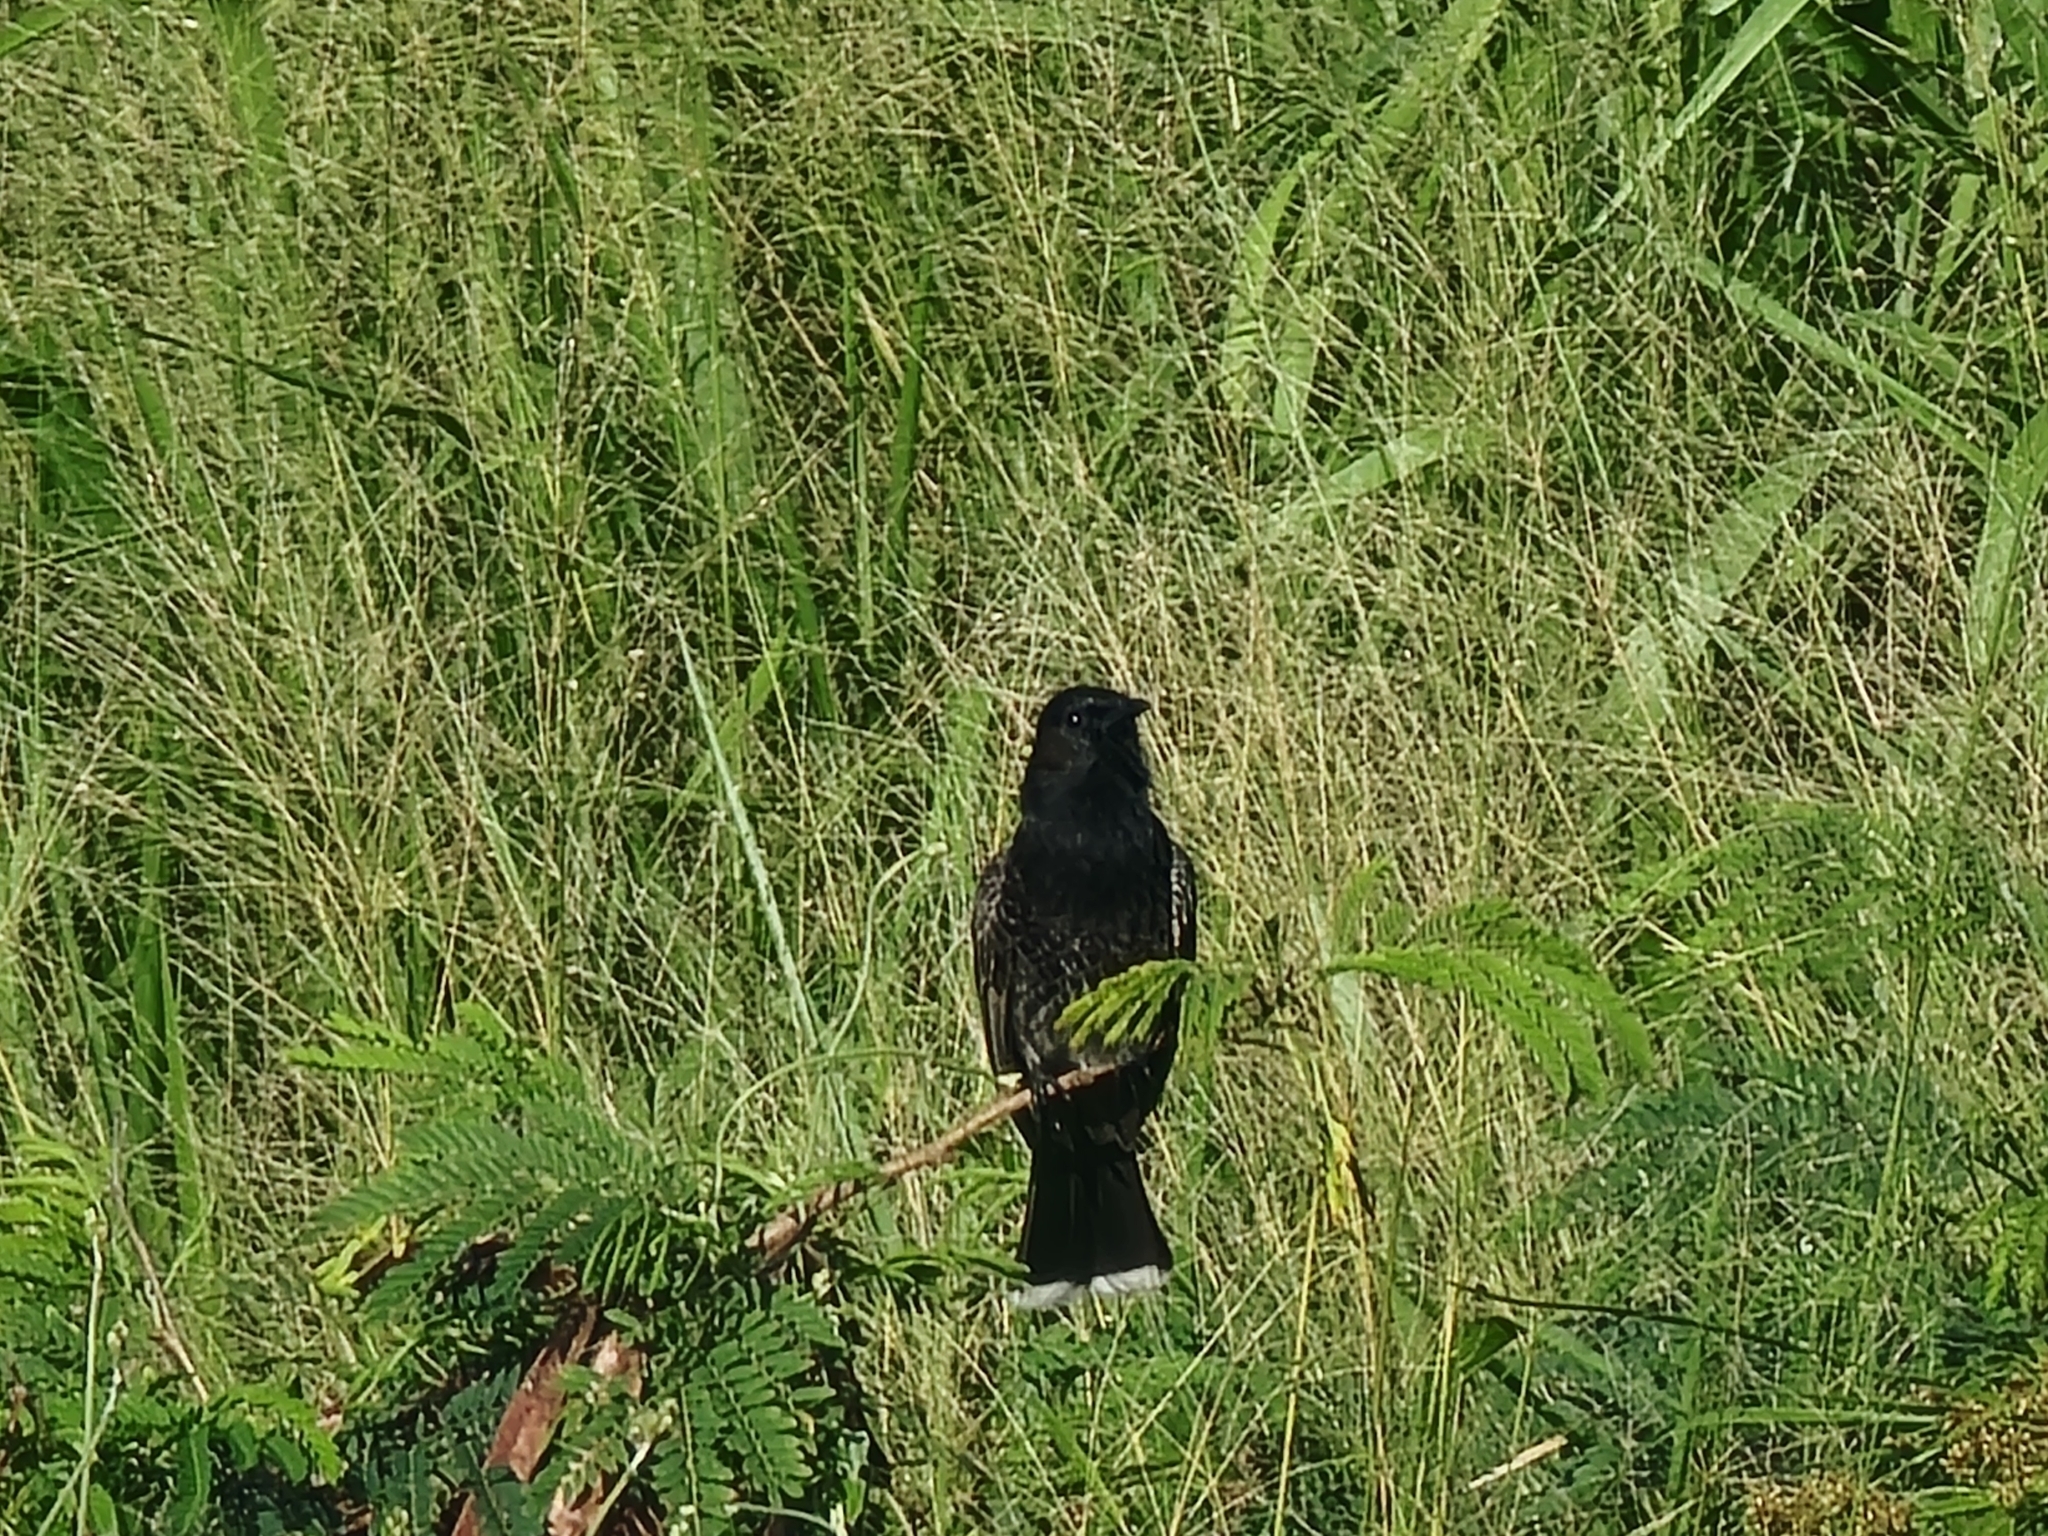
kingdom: Animalia
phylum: Chordata
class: Aves
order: Passeriformes
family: Pycnonotidae
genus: Pycnonotus
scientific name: Pycnonotus cafer
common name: Red-vented bulbul
